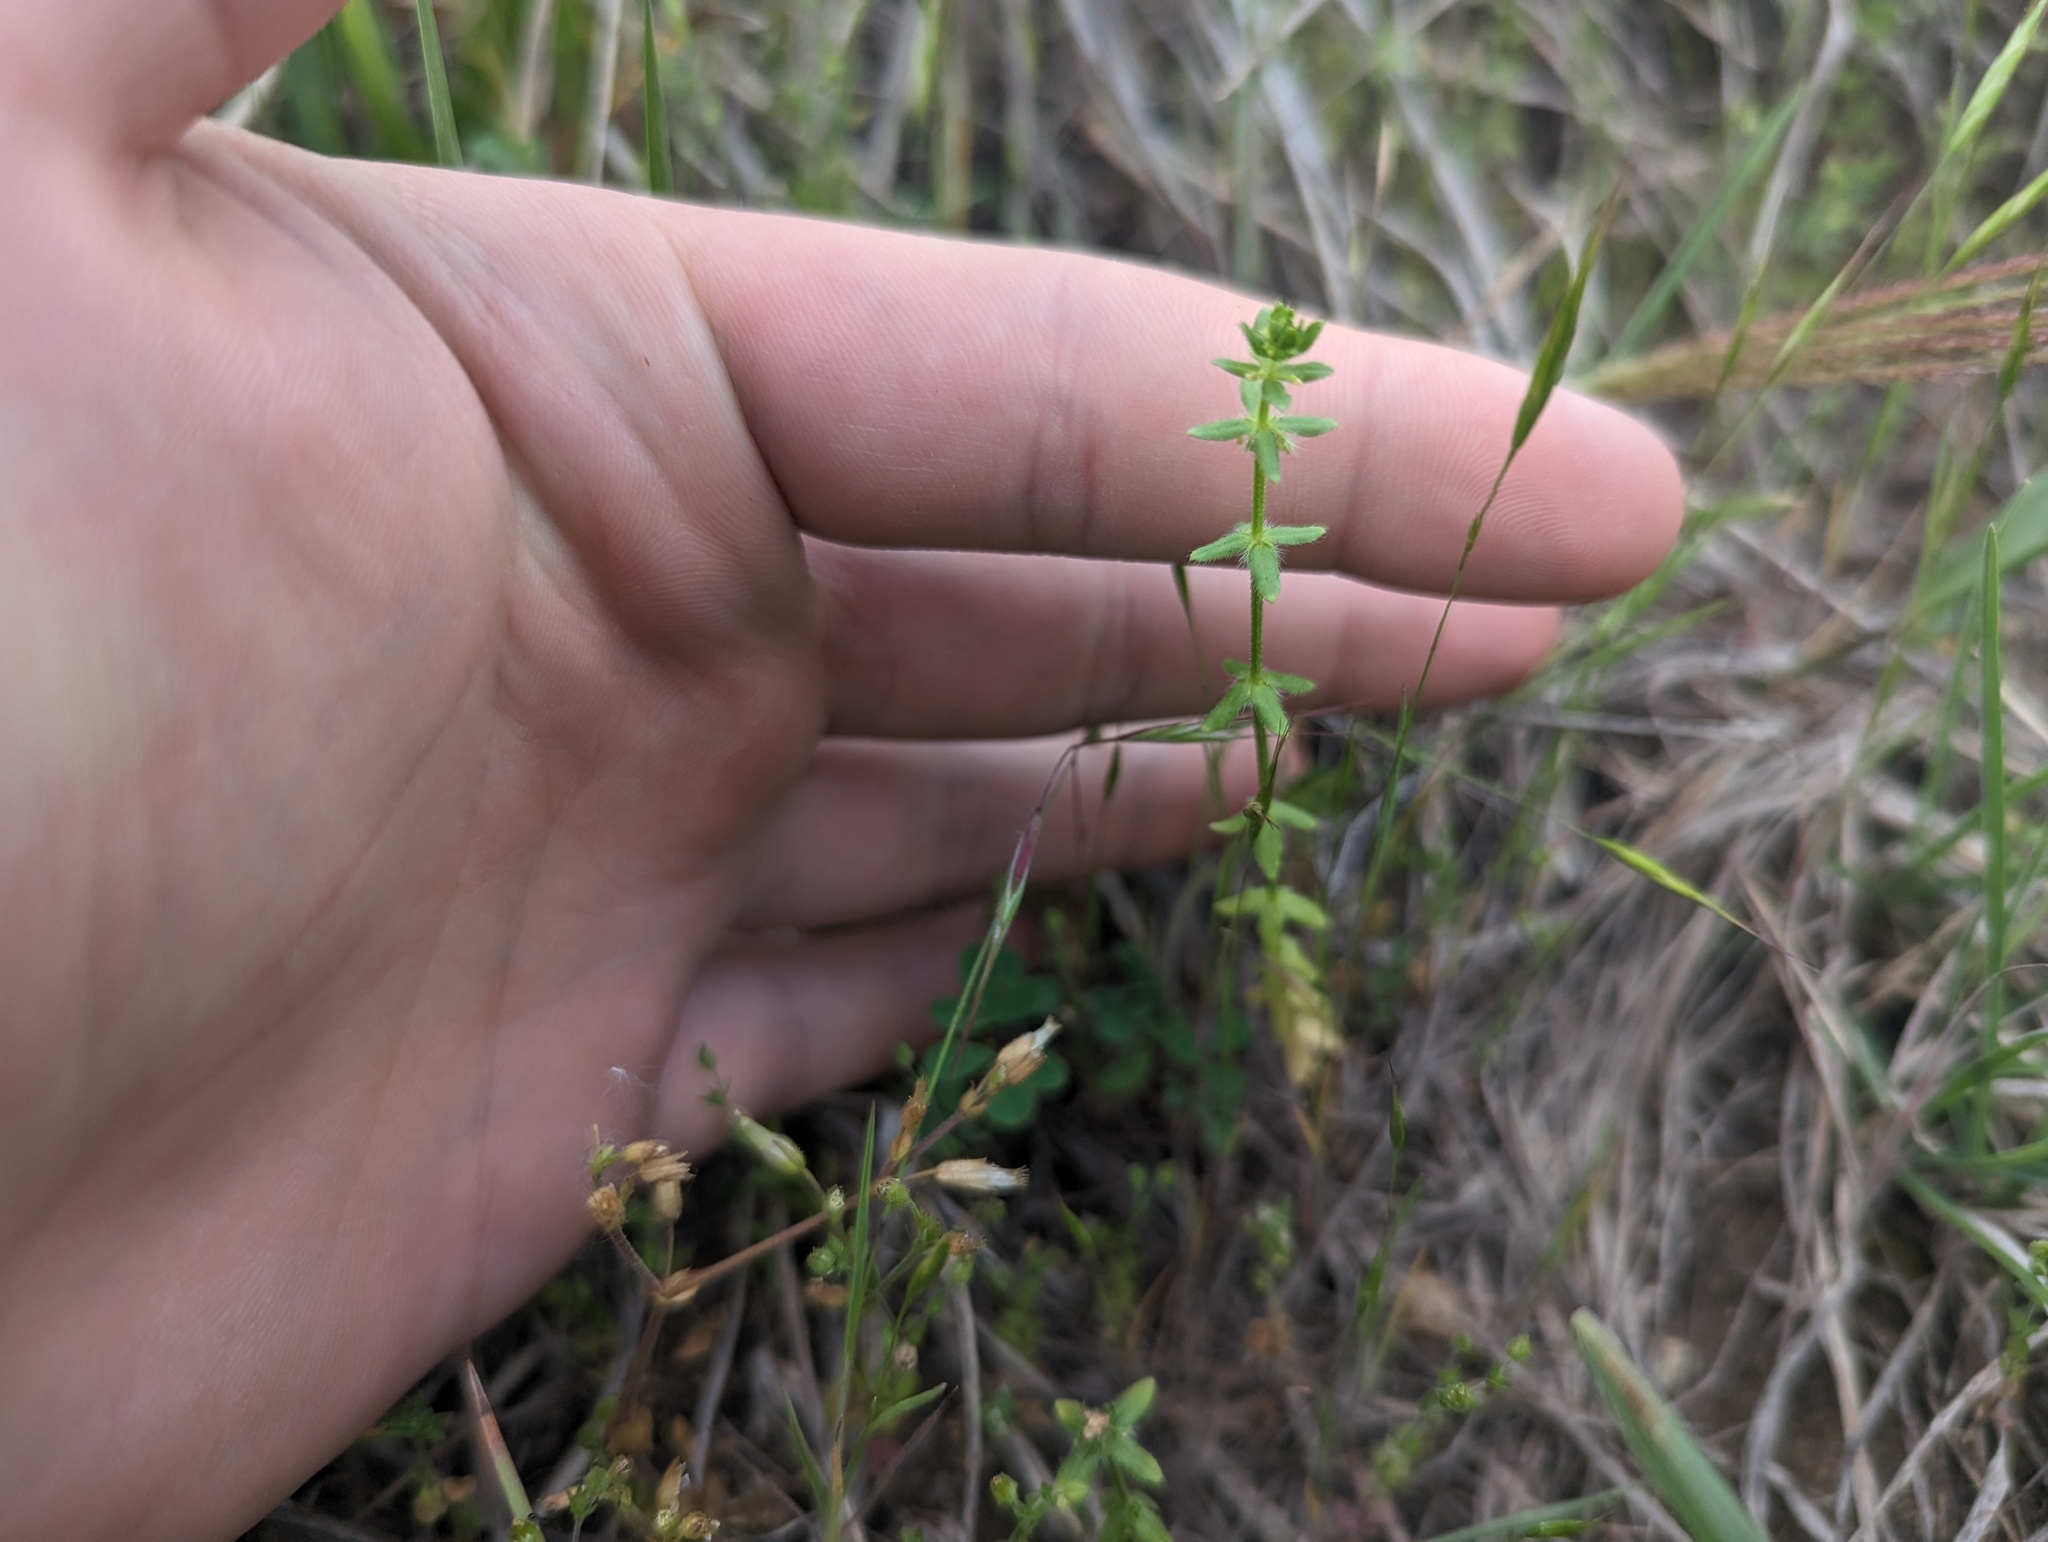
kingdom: Plantae
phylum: Tracheophyta
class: Magnoliopsida
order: Gentianales
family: Rubiaceae
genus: Cruciata
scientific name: Cruciata pedemontana
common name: Piedmont bedstraw
